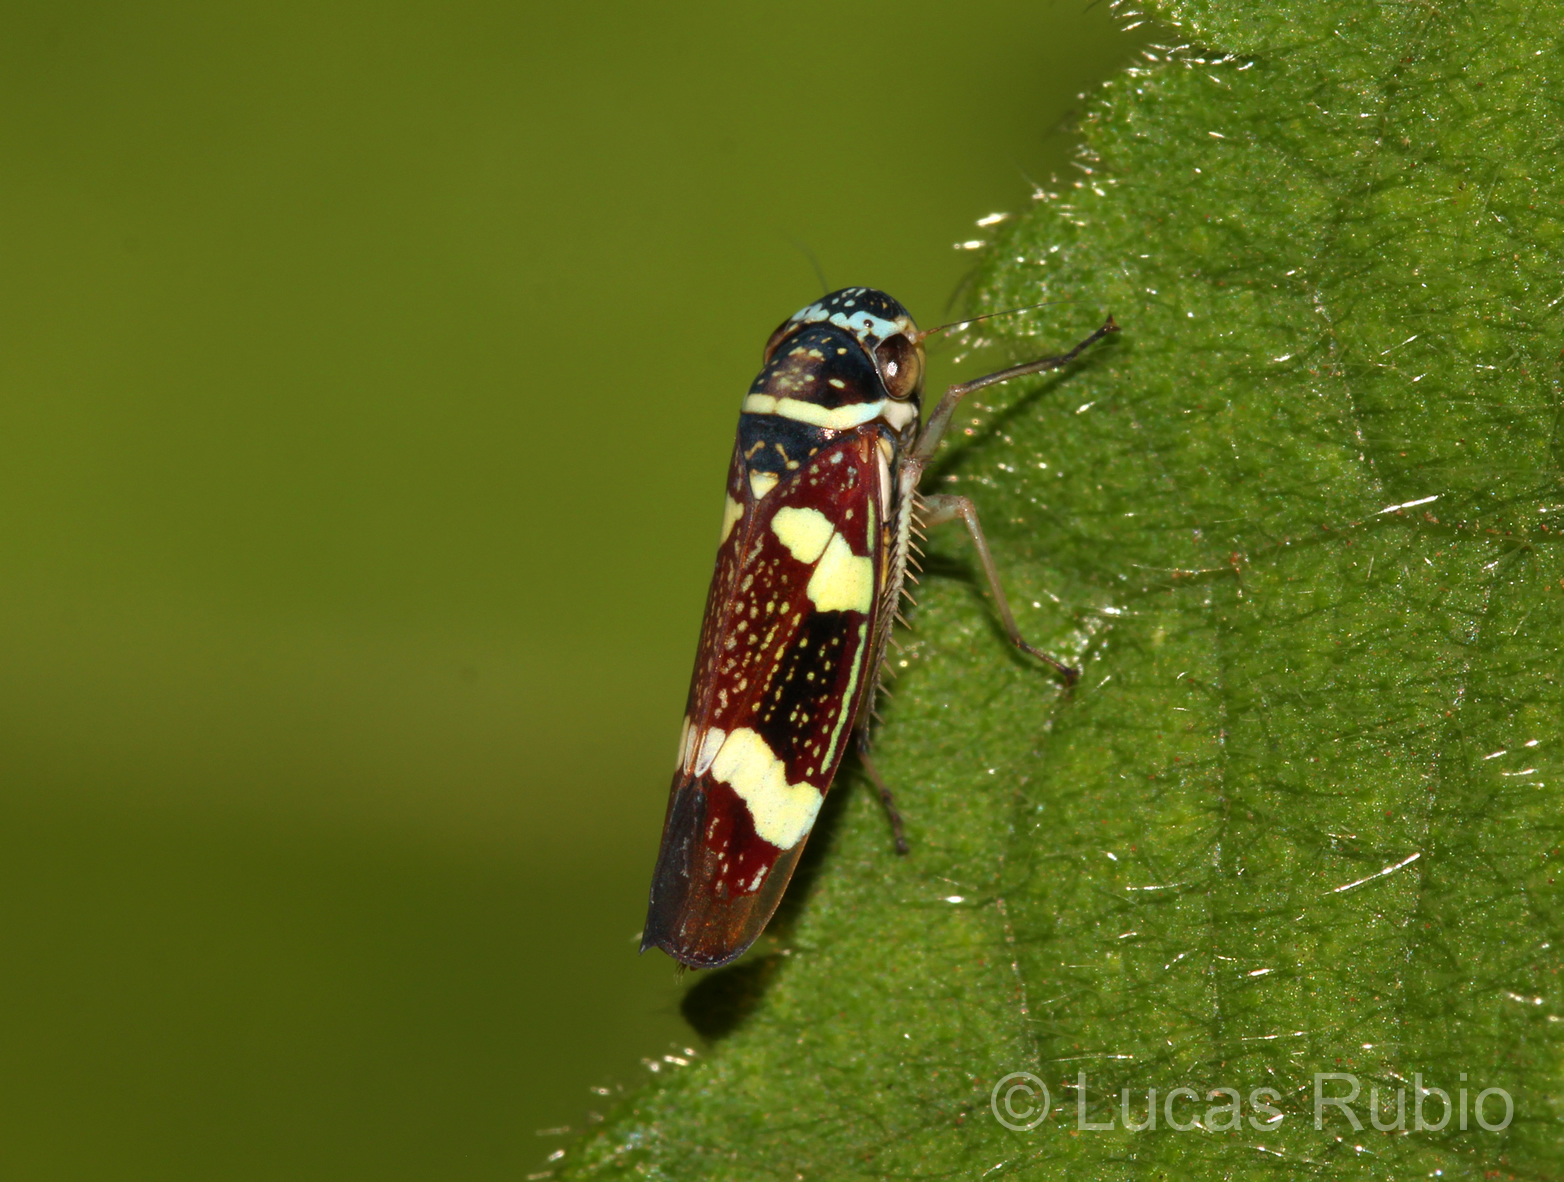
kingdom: Animalia
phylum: Arthropoda
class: Insecta
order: Hemiptera
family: Cicadellidae
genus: Macugonalia
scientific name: Macugonalia leucomelas
